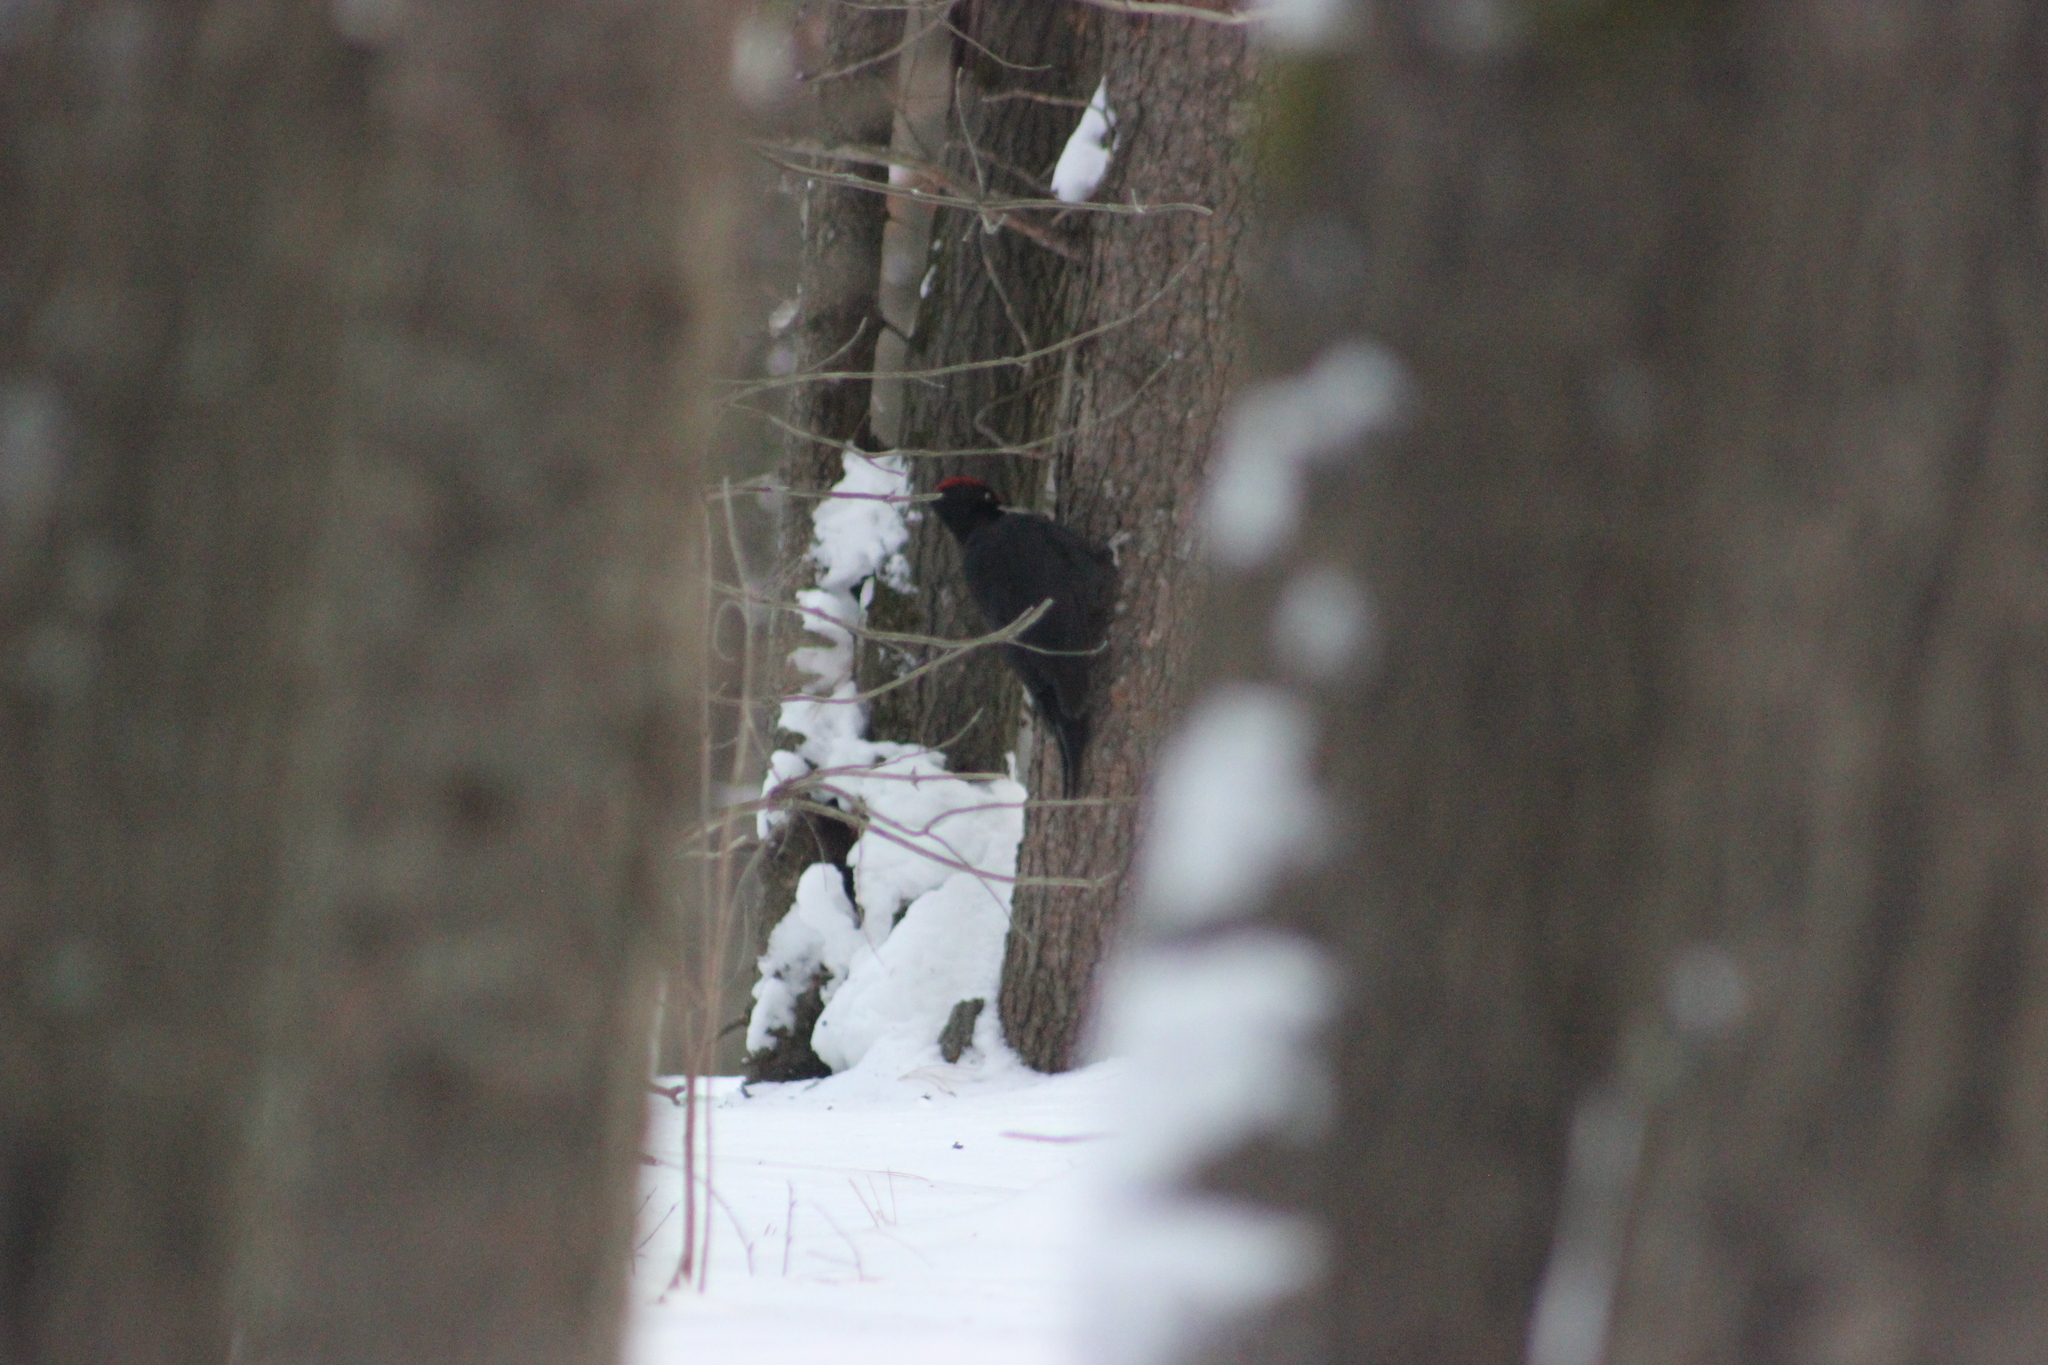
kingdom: Animalia
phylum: Chordata
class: Aves
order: Piciformes
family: Picidae
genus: Dryocopus
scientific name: Dryocopus martius
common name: Black woodpecker
